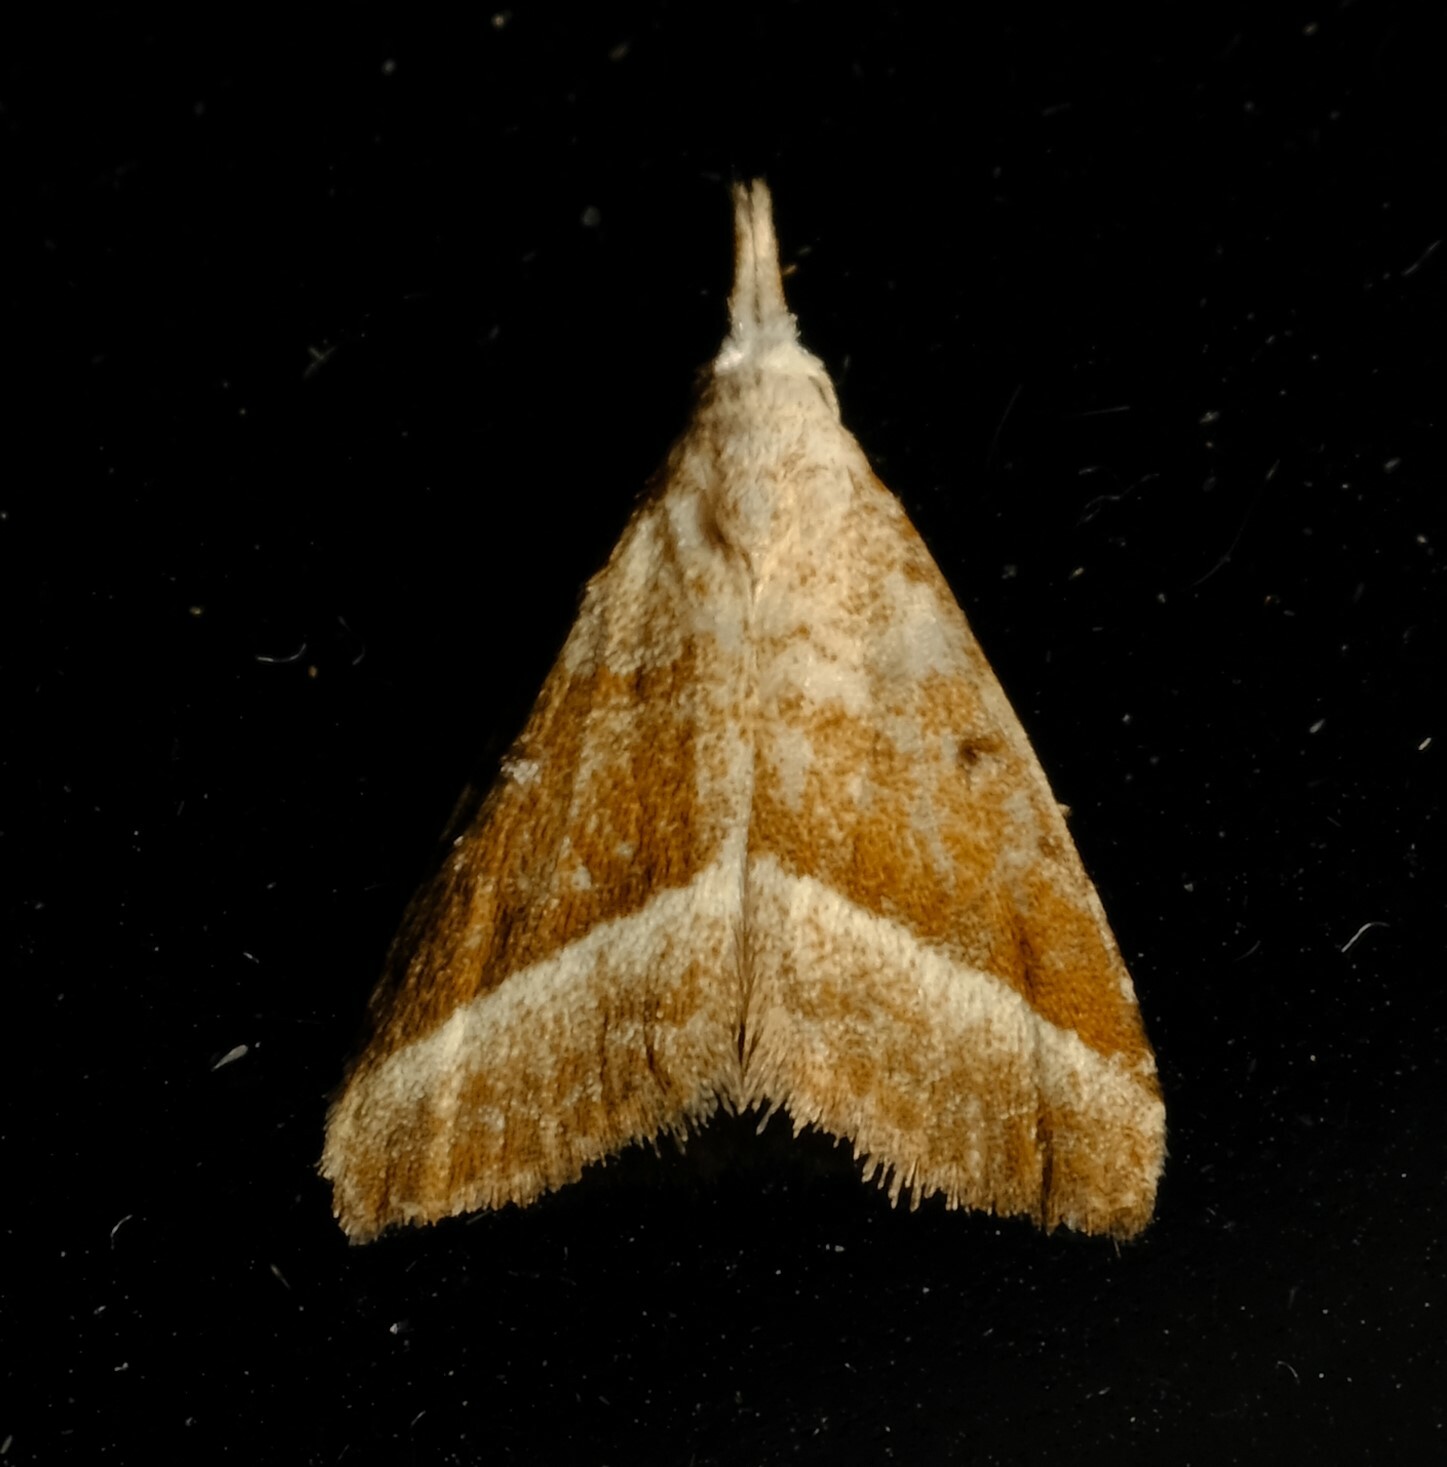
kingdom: Animalia
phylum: Arthropoda
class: Insecta
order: Lepidoptera
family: Nolidae
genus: Nola
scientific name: Nola tholera
